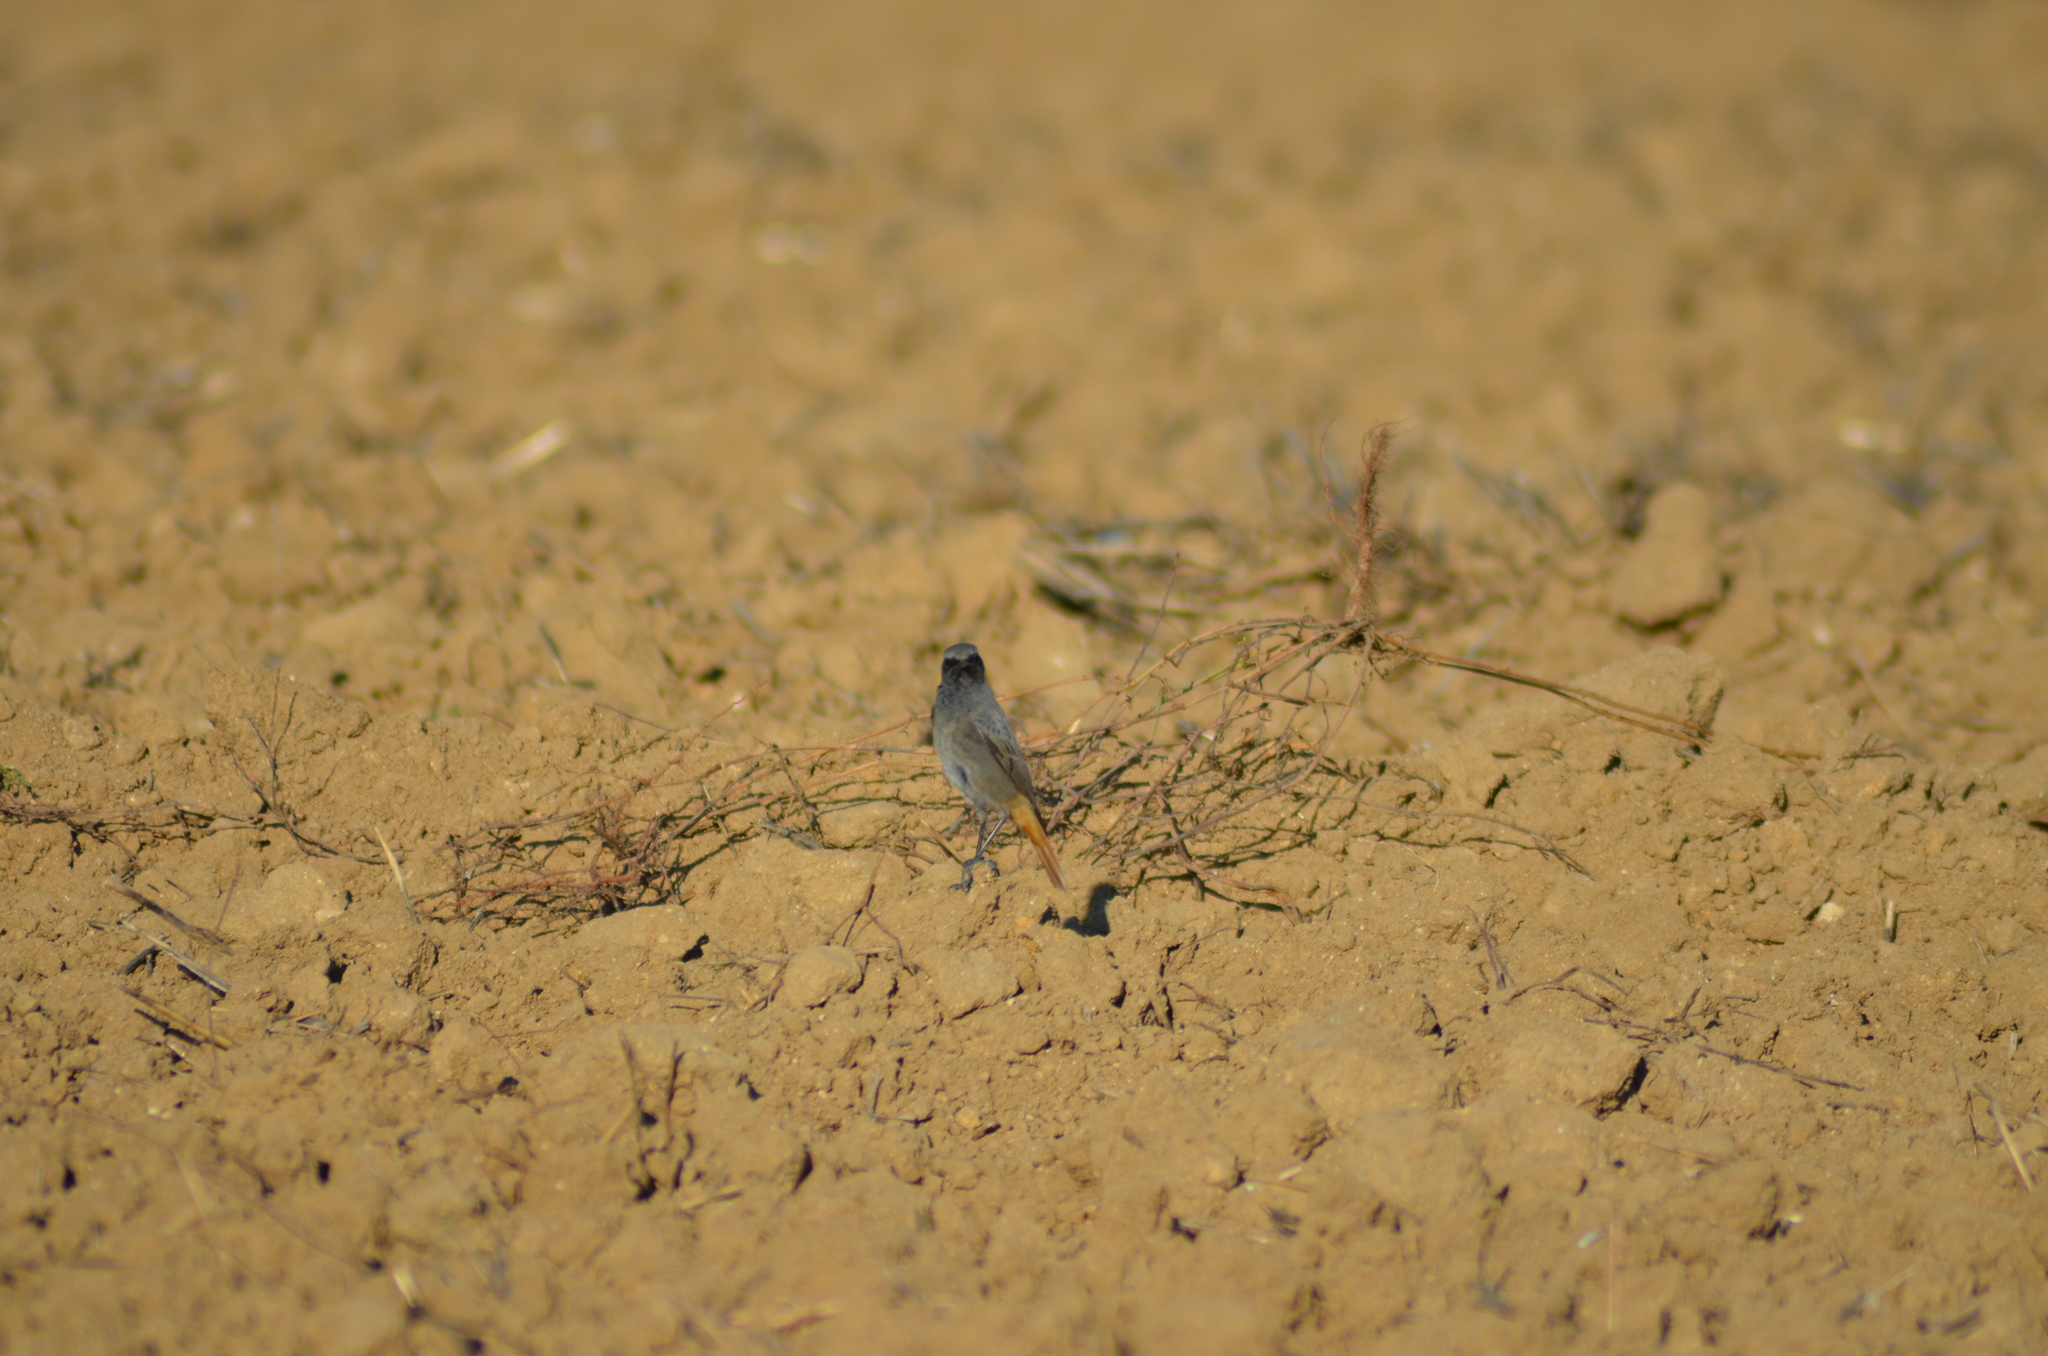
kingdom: Animalia
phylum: Chordata
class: Aves
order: Passeriformes
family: Muscicapidae
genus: Phoenicurus
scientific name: Phoenicurus ochruros
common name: Black redstart
